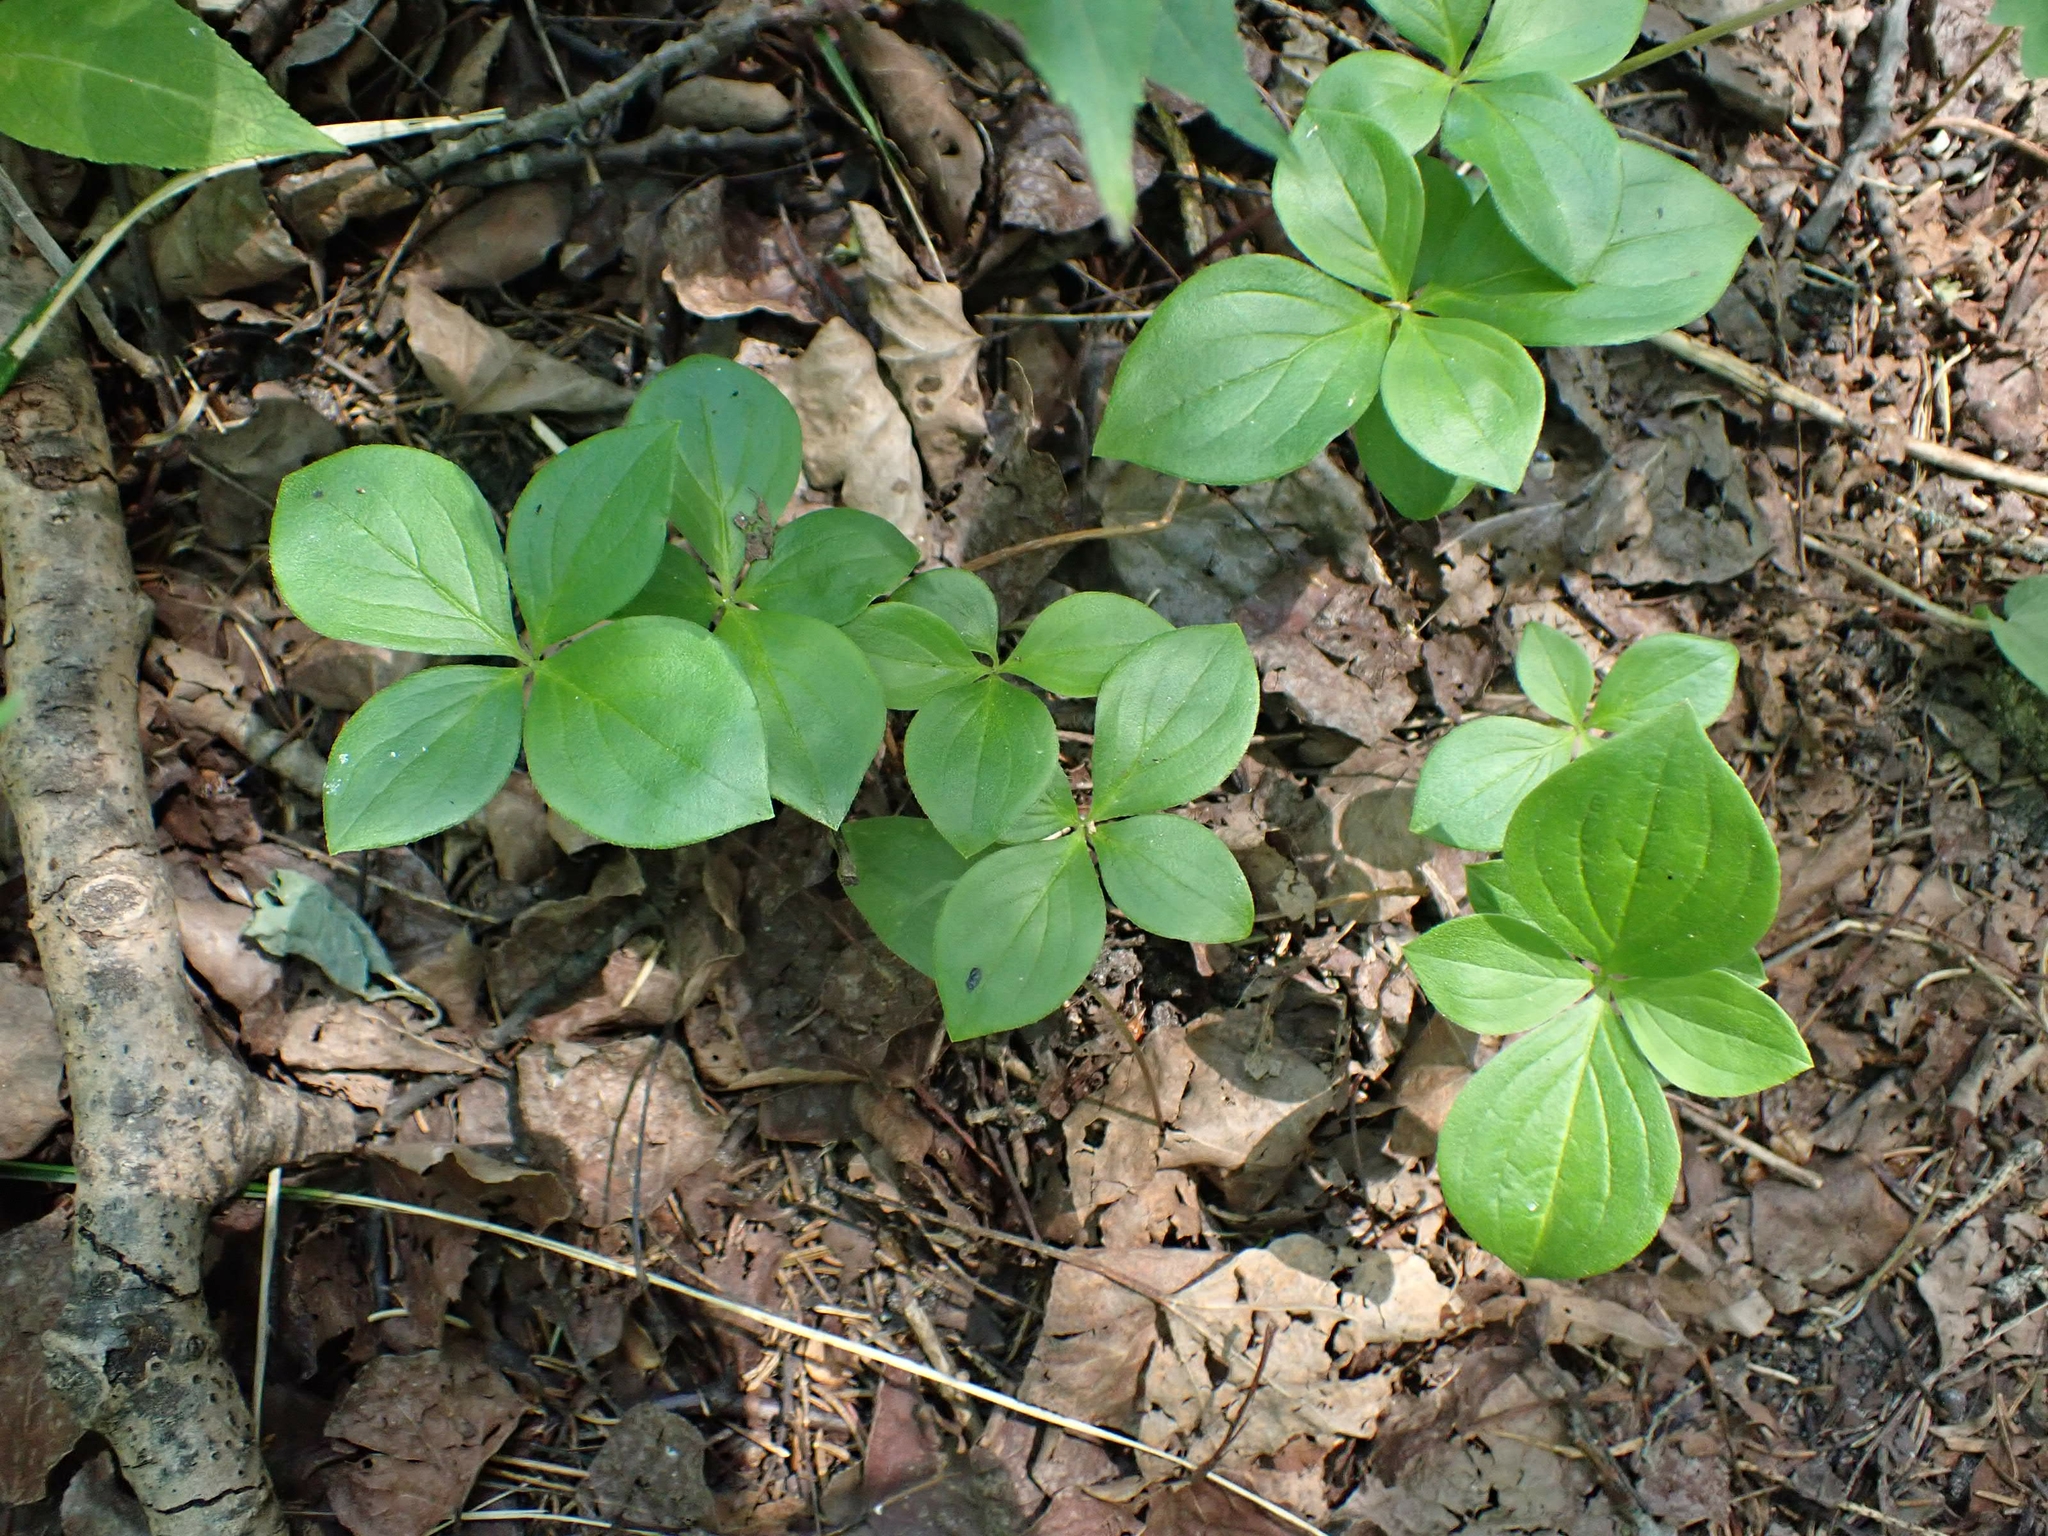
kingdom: Plantae
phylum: Tracheophyta
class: Magnoliopsida
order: Cornales
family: Cornaceae
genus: Cornus
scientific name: Cornus canadensis
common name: Creeping dogwood
